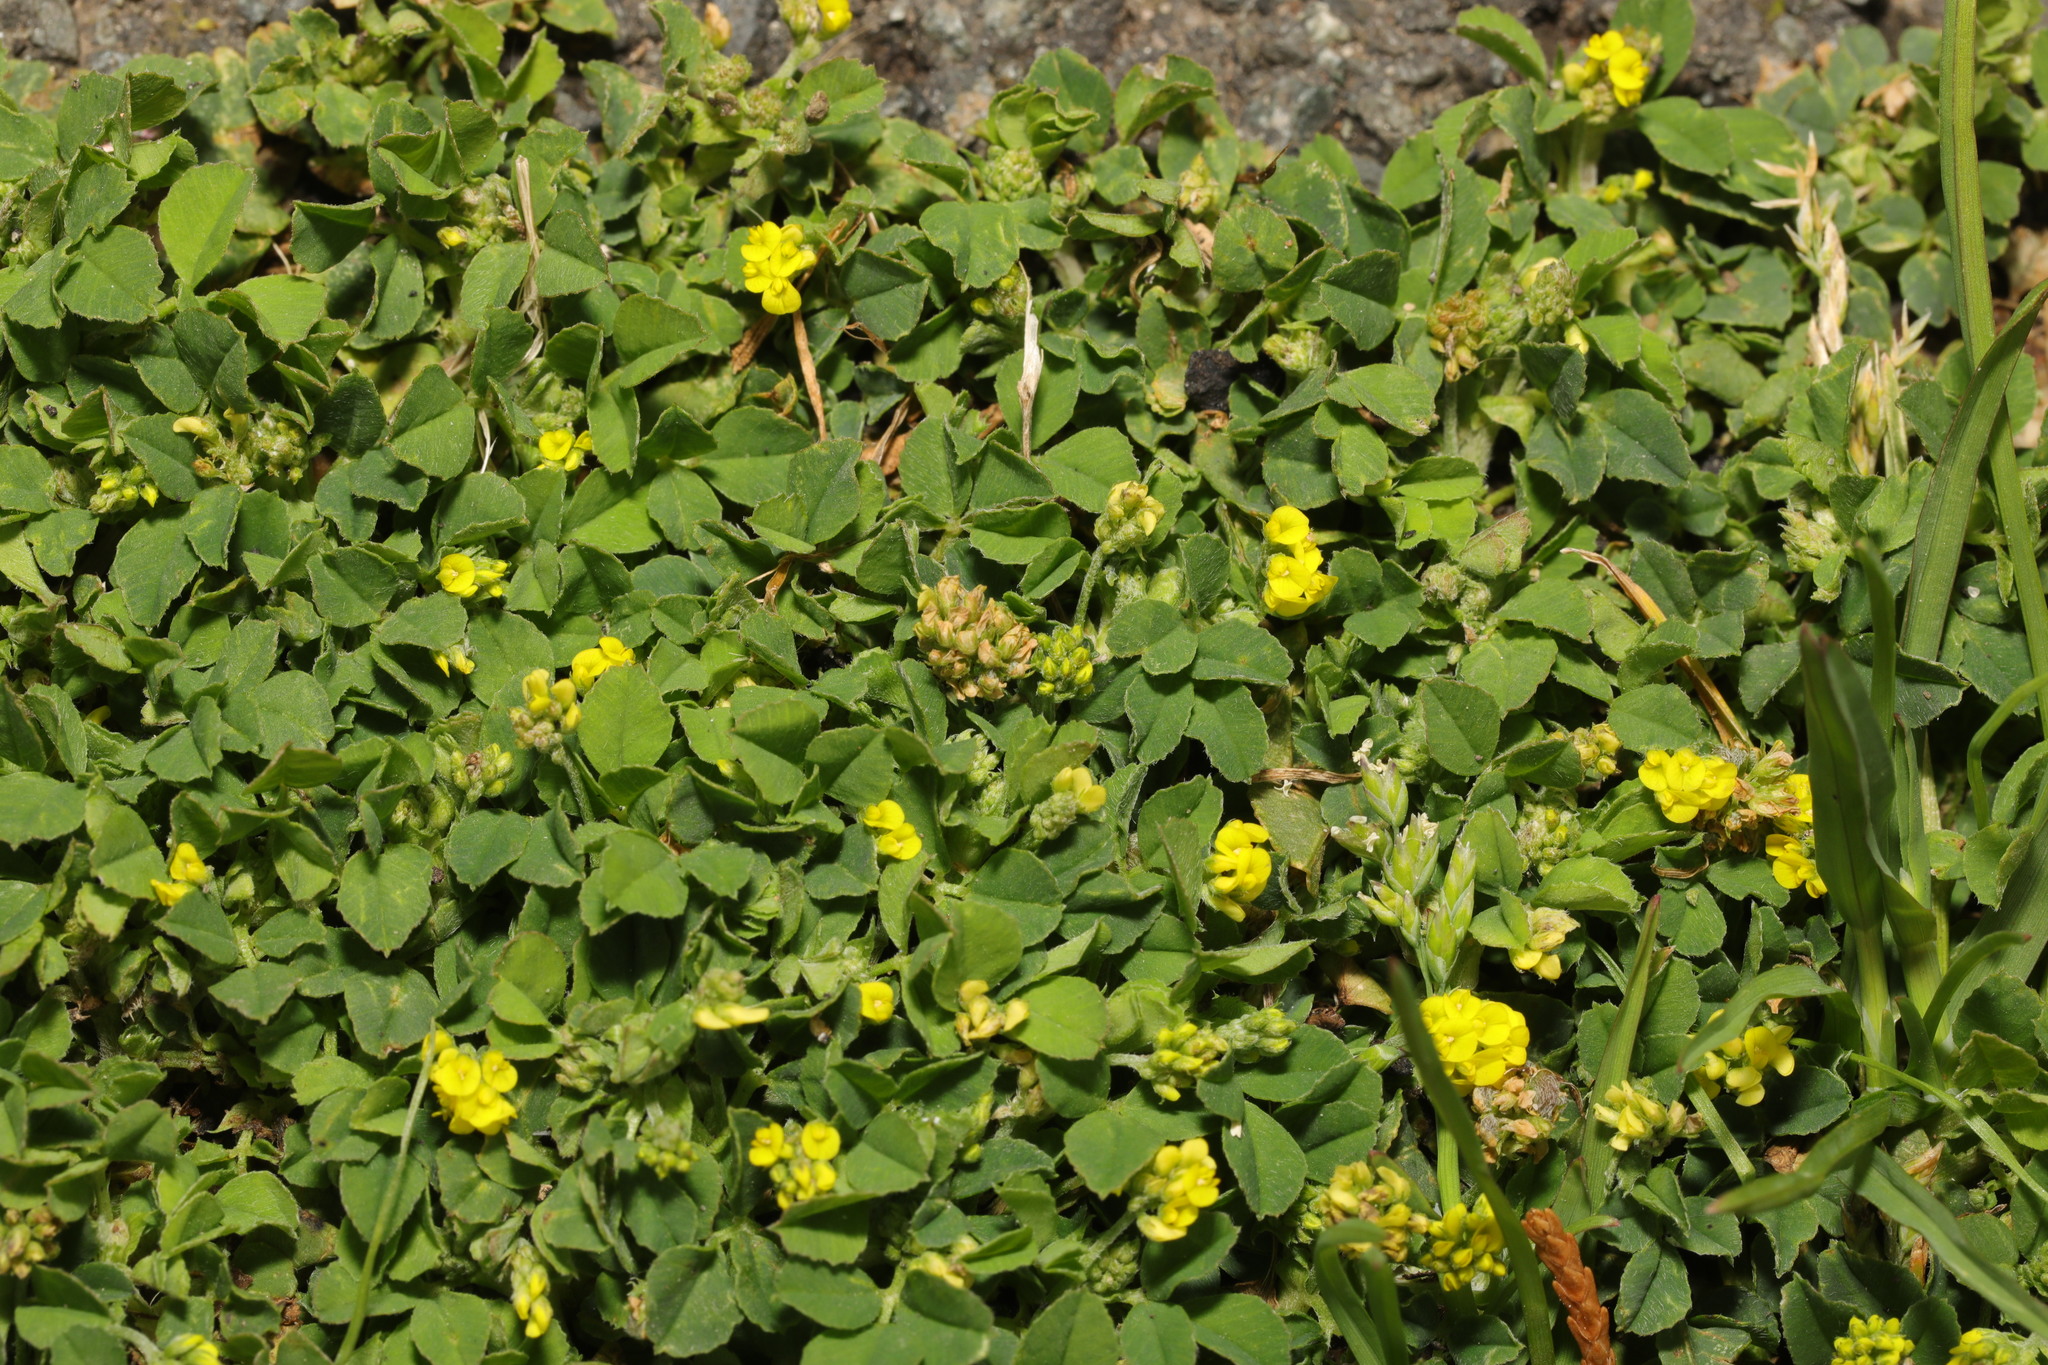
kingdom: Plantae
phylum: Tracheophyta
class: Magnoliopsida
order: Fabales
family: Fabaceae
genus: Medicago
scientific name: Medicago lupulina
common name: Black medick
